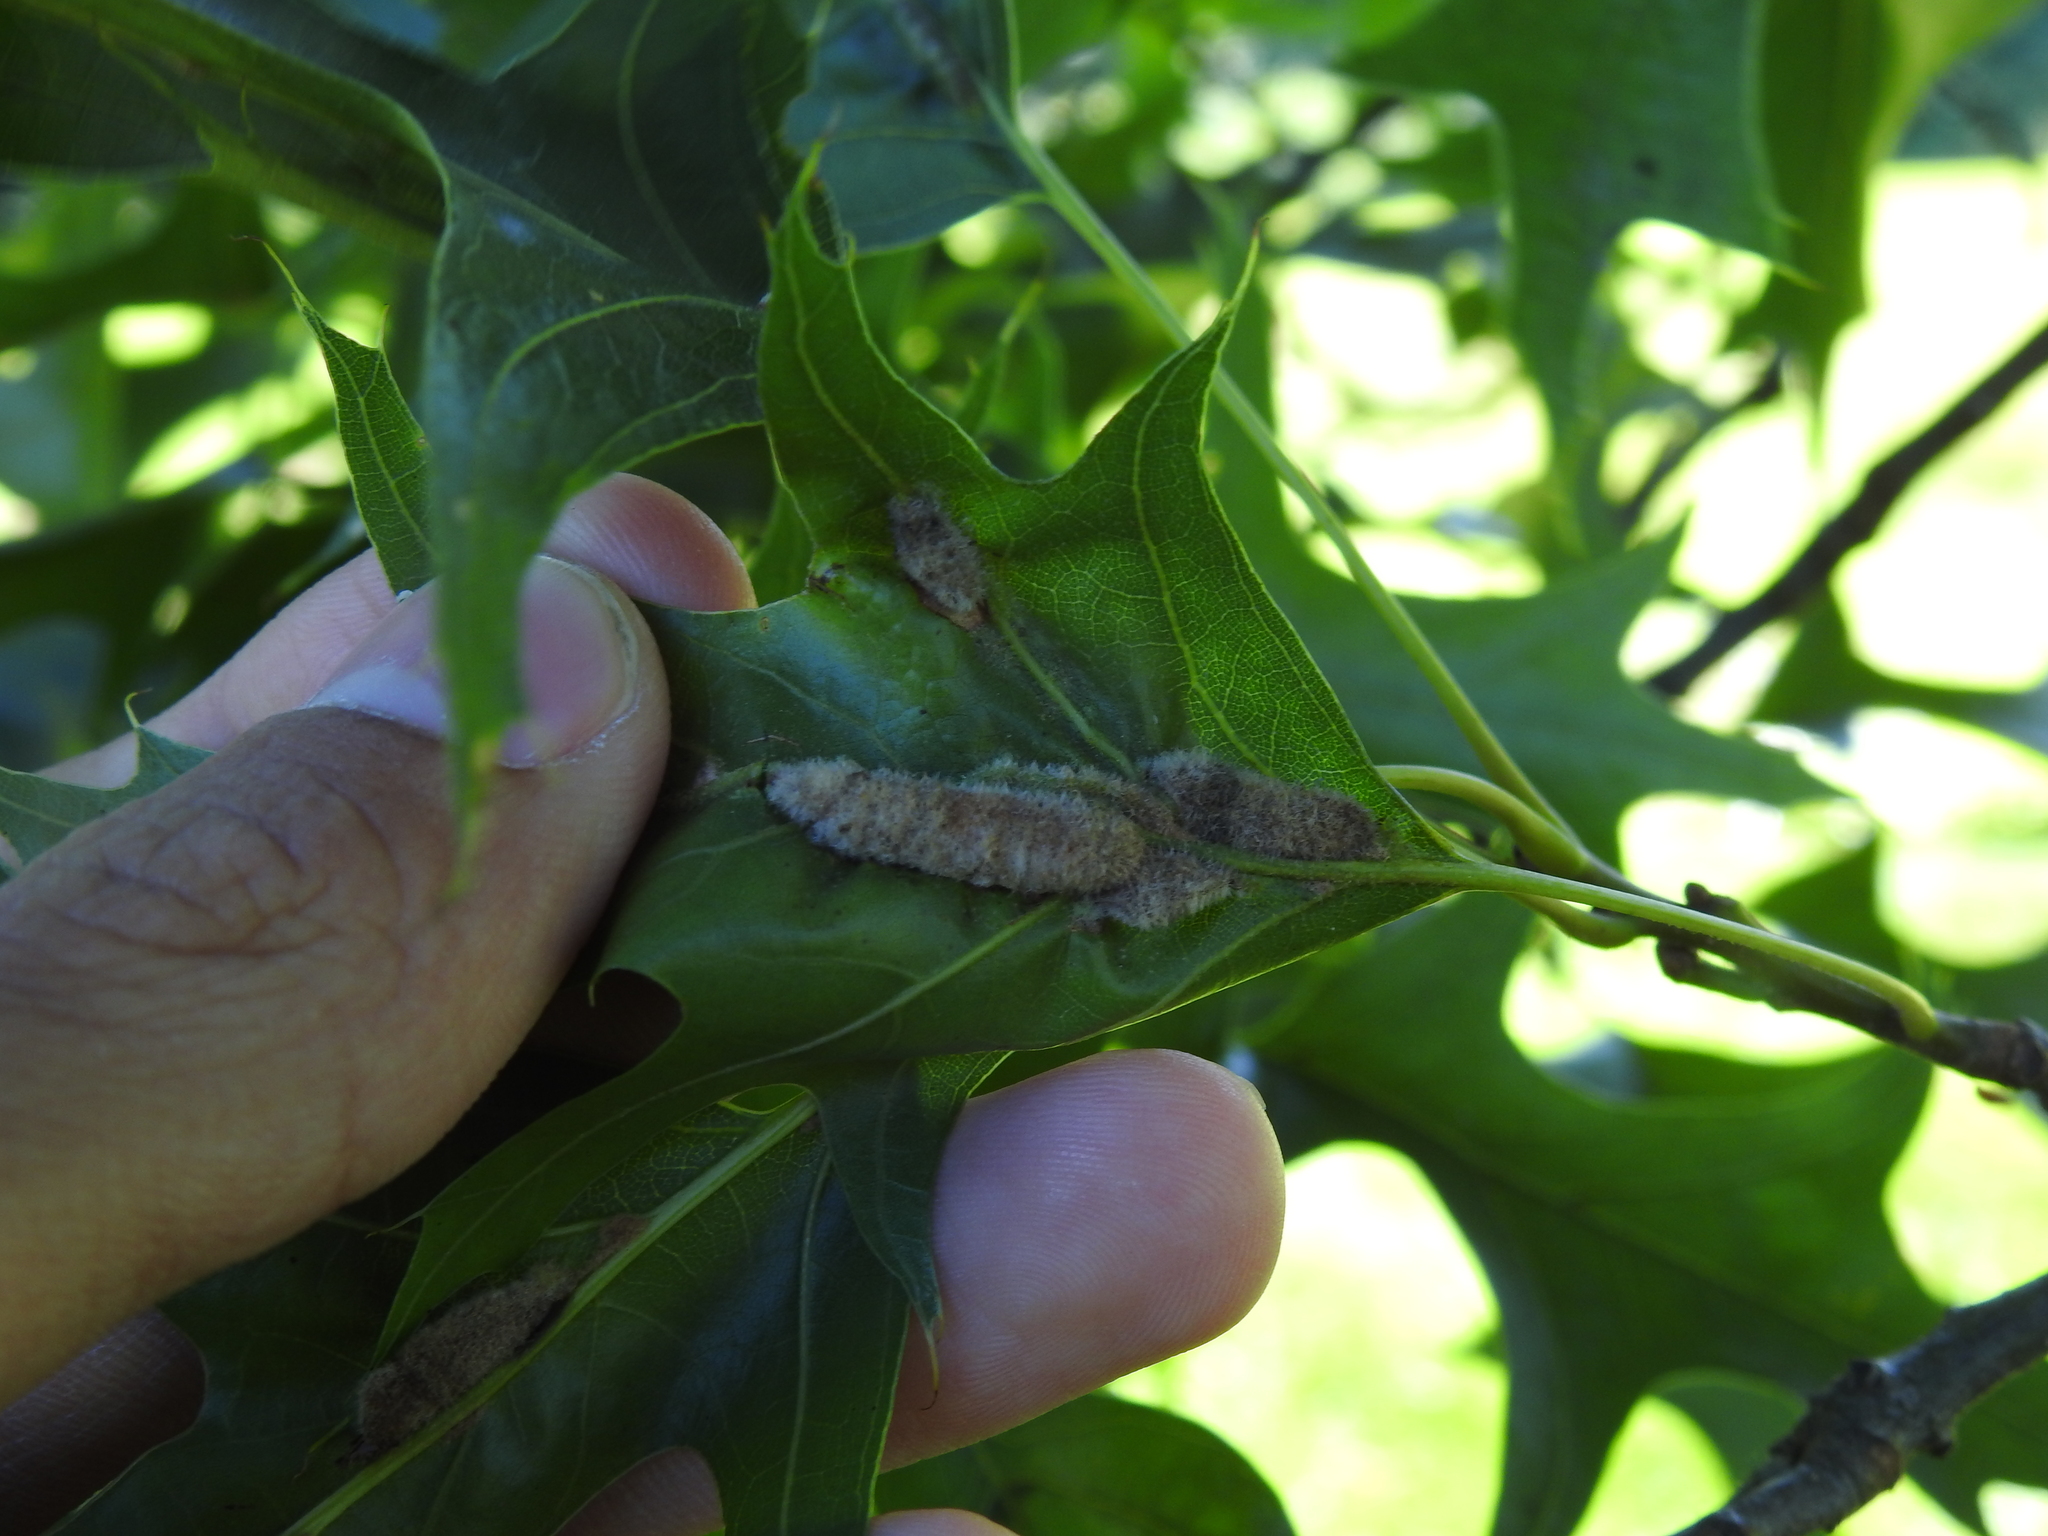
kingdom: Animalia
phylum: Arthropoda
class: Insecta
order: Diptera
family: Cecidomyiidae
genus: Macrodiplosis
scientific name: Macrodiplosis niveipila
